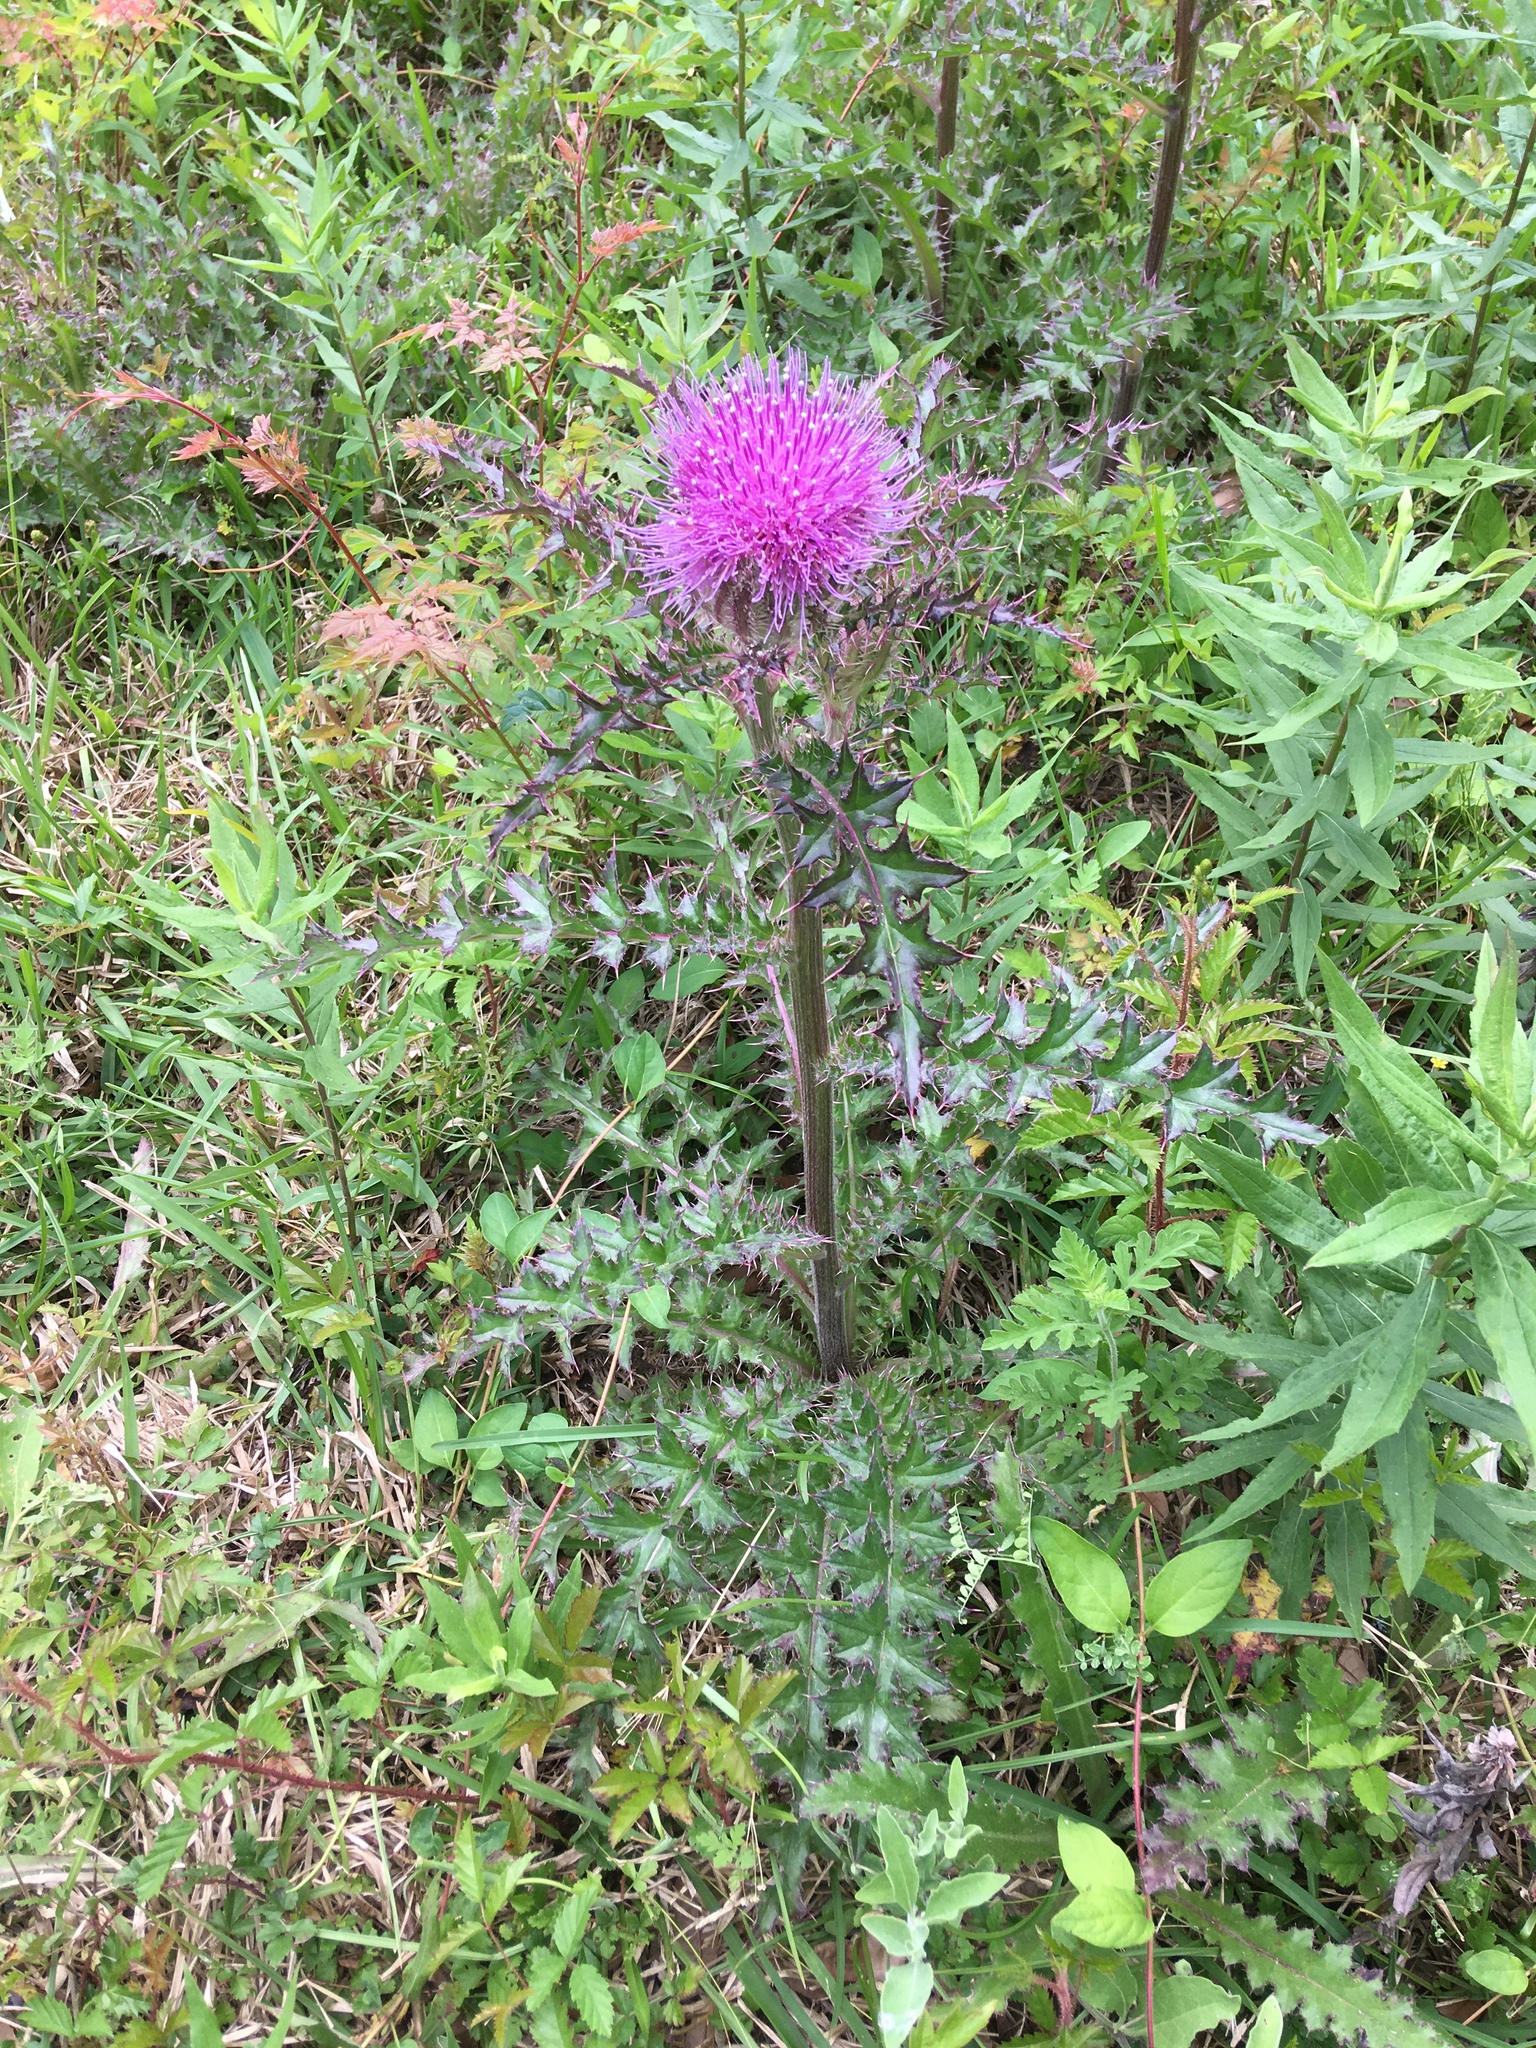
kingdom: Plantae
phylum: Tracheophyta
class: Magnoliopsida
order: Asterales
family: Asteraceae
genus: Cirsium
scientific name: Cirsium horridulum
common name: Bristly thistle
